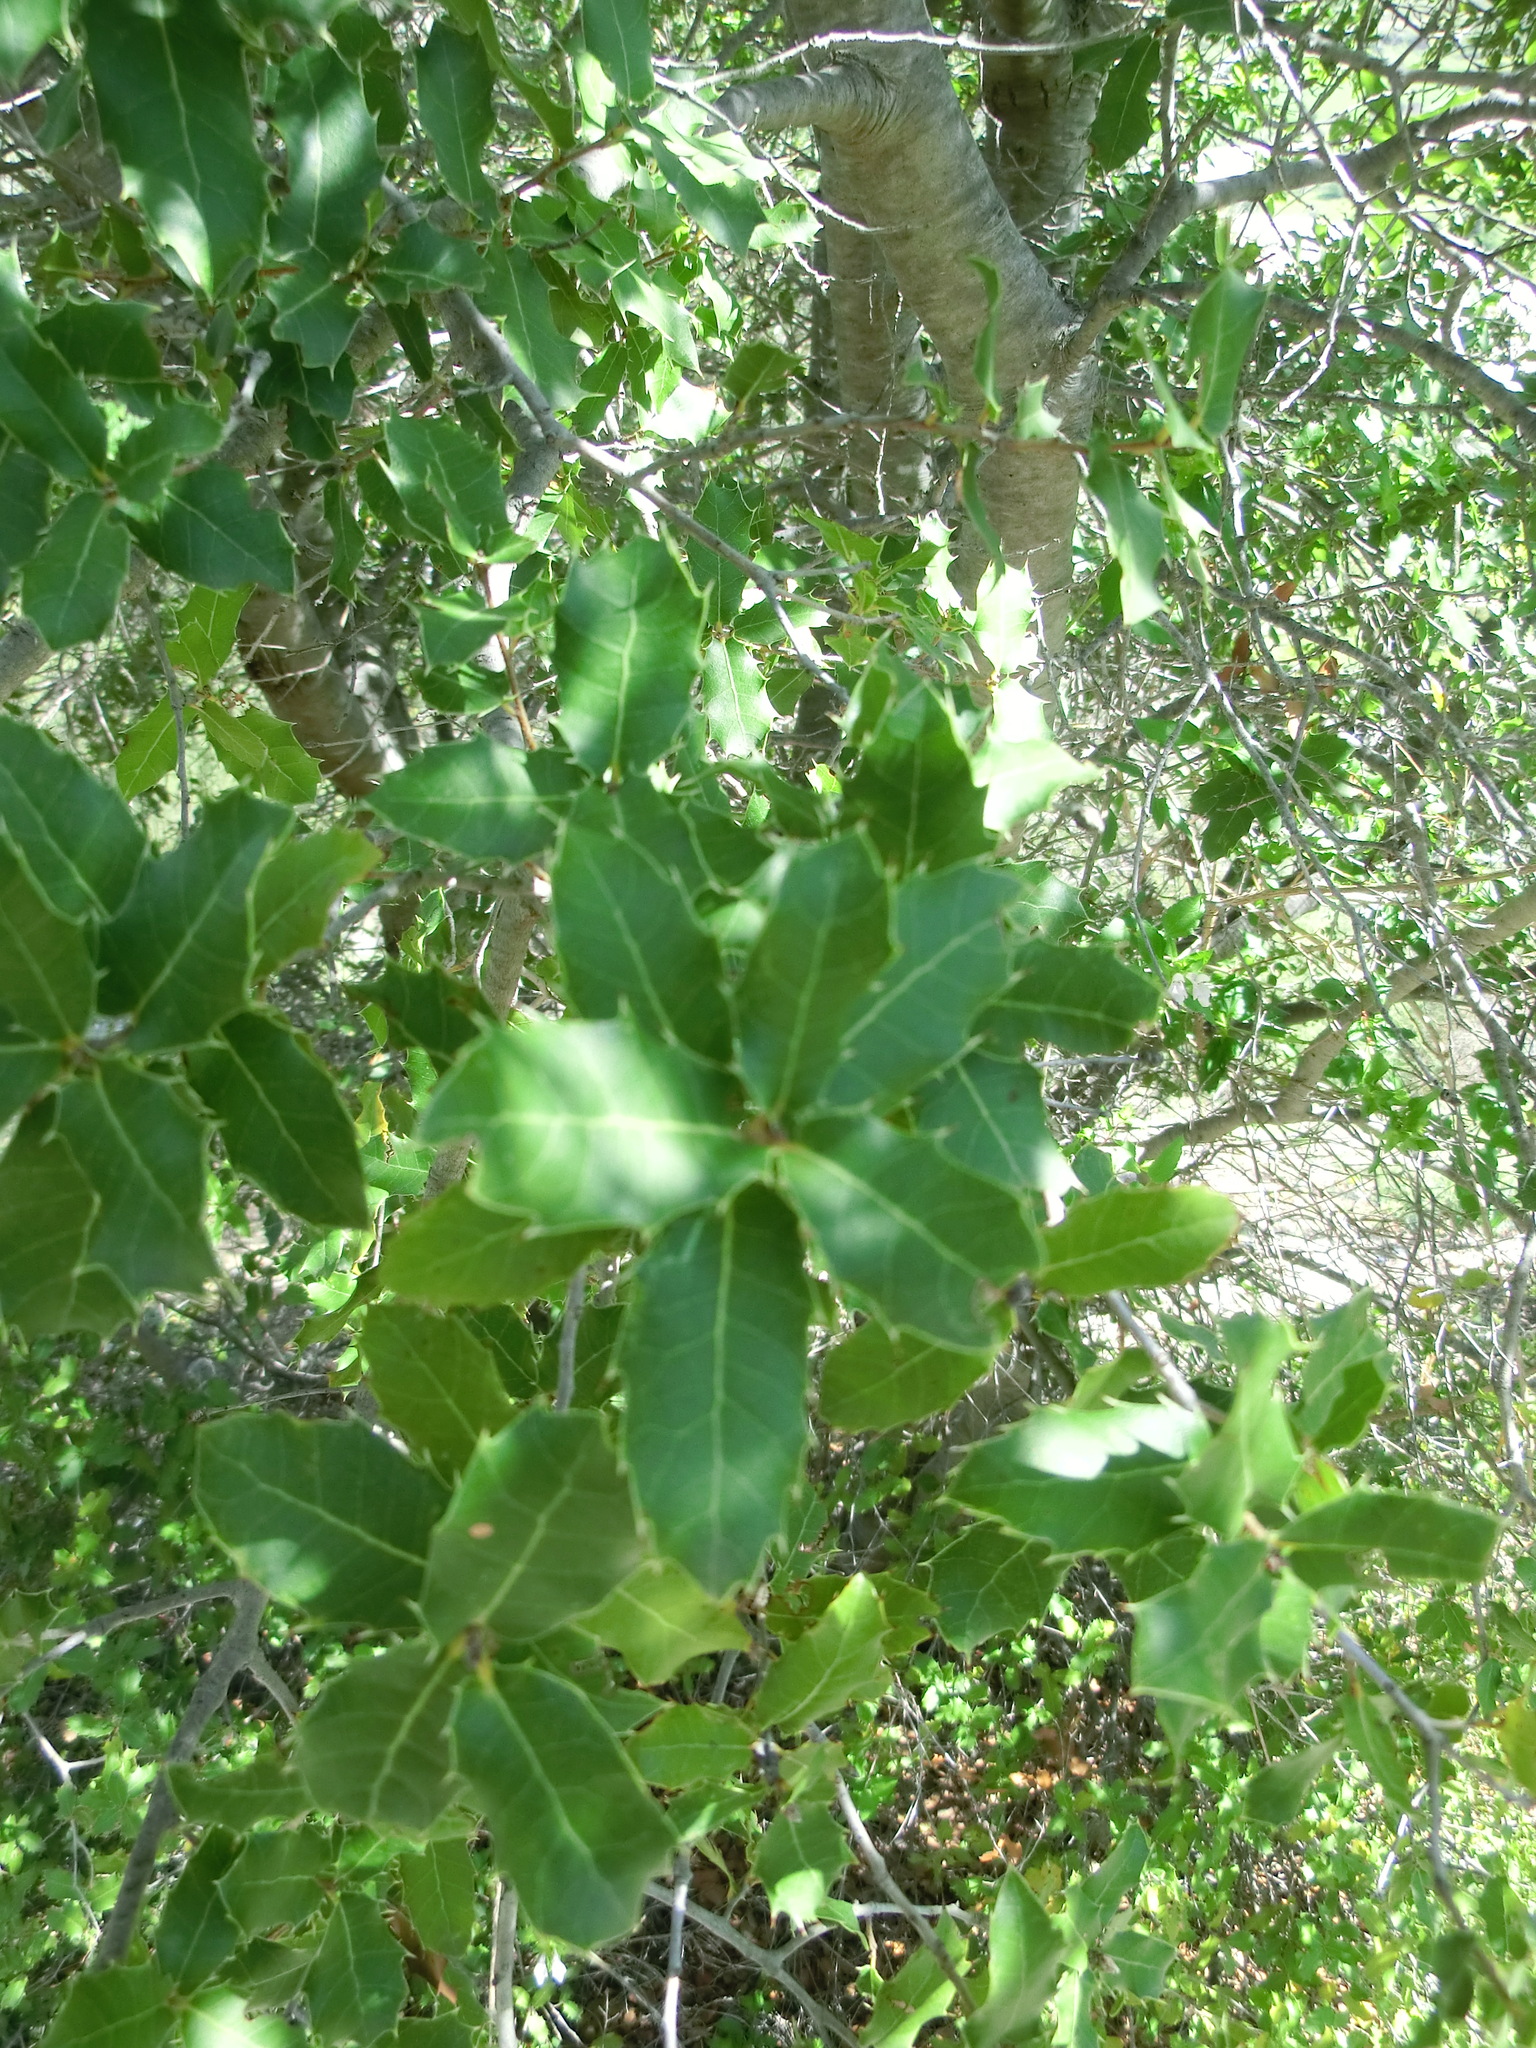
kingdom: Plantae
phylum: Tracheophyta
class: Magnoliopsida
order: Fagales
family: Fagaceae
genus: Quercus
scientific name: Quercus coccifera
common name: Kermes oak
